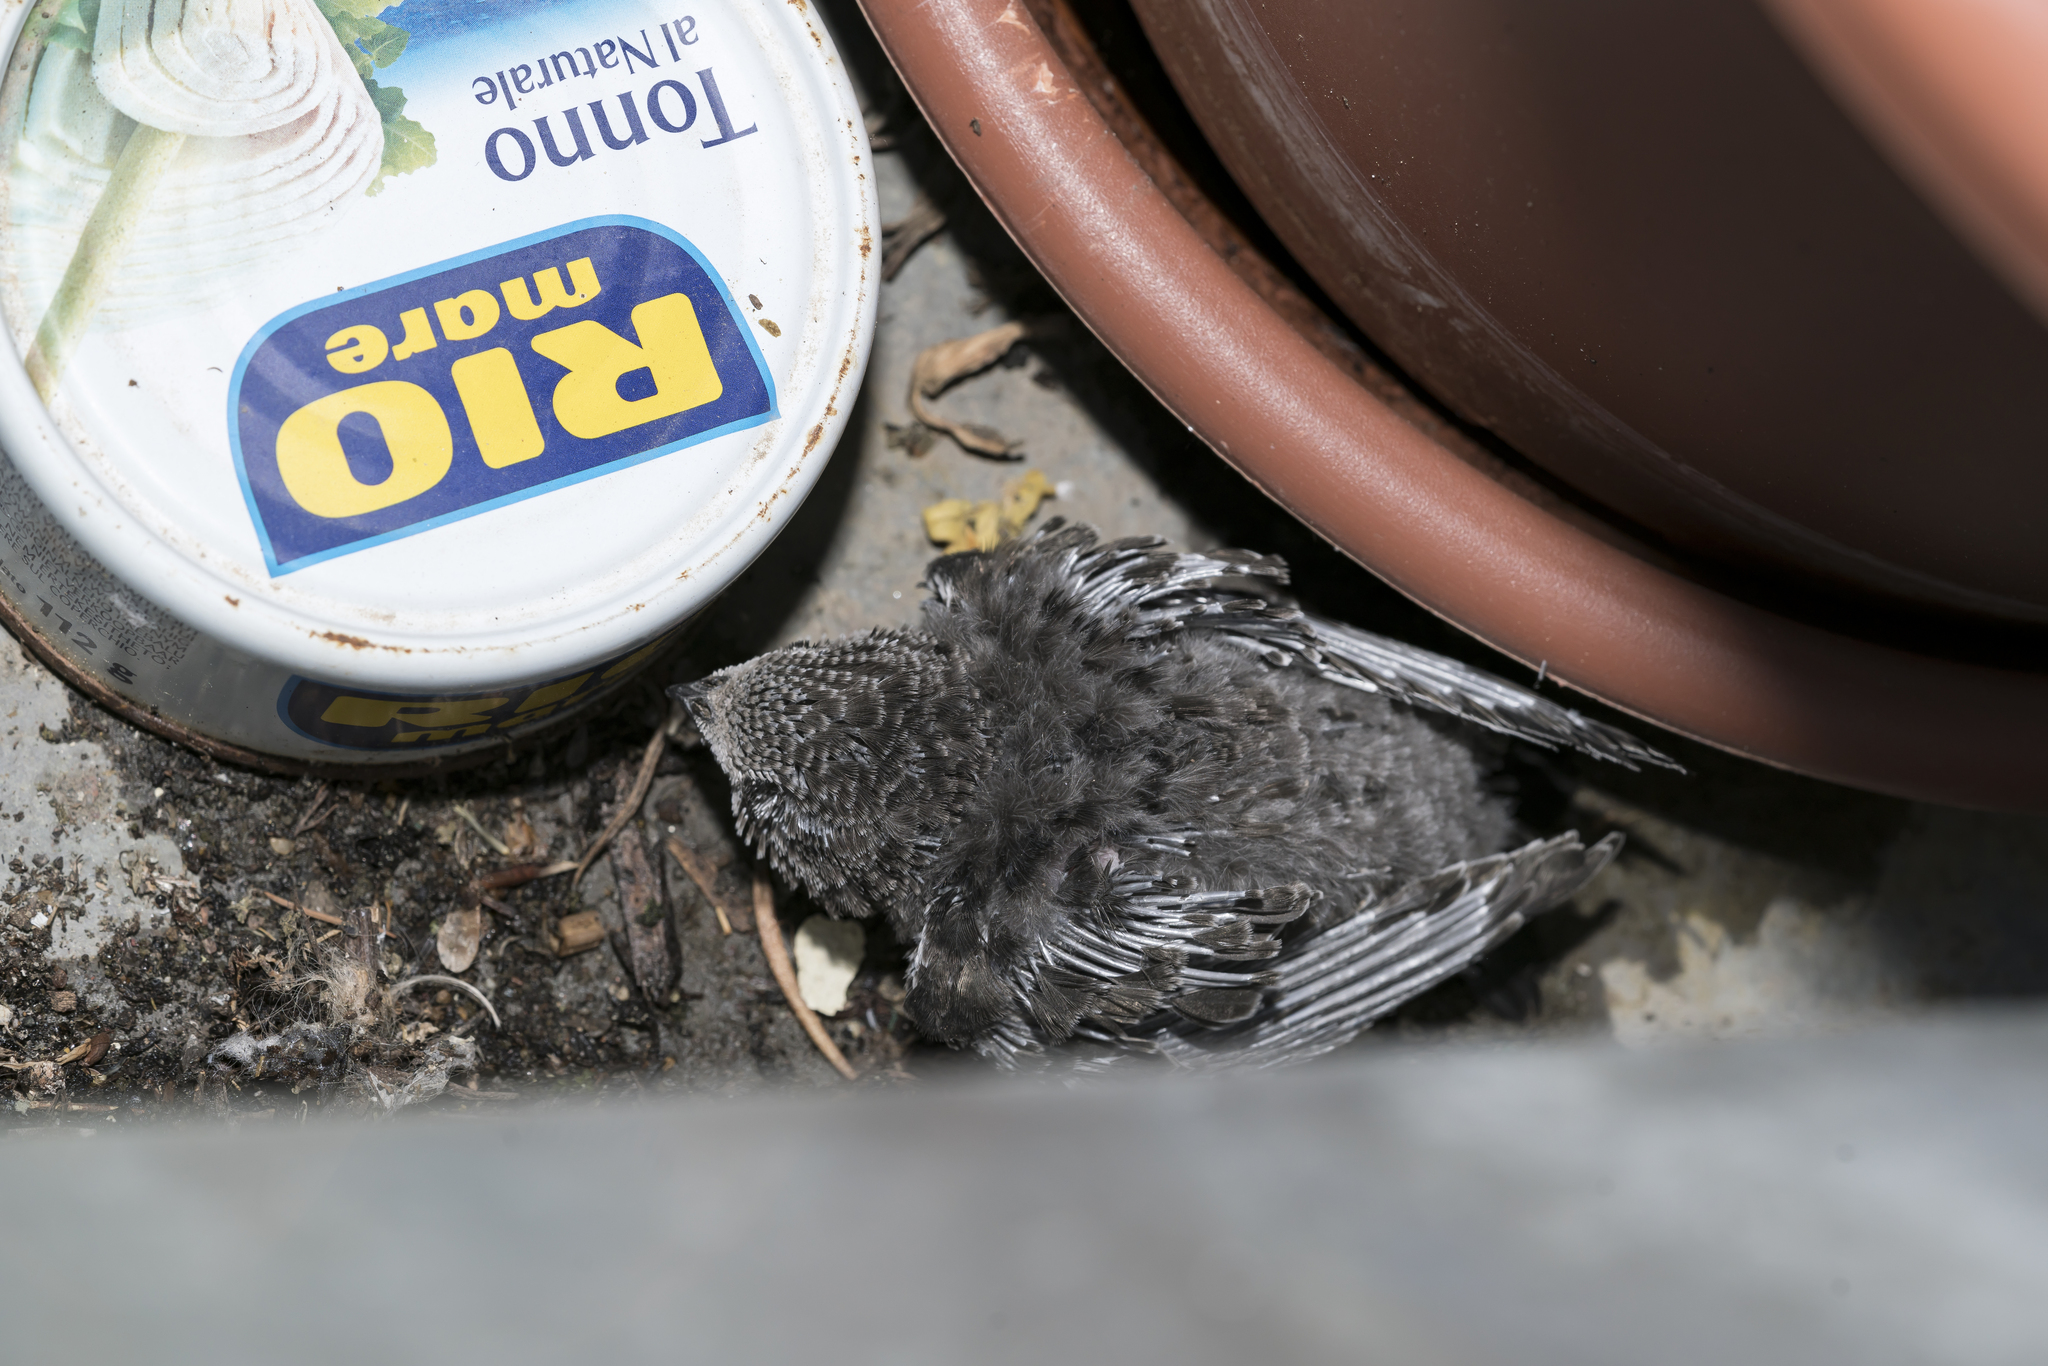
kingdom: Animalia
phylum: Chordata
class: Aves
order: Apodiformes
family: Apodidae
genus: Apus
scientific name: Apus apus
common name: Common swift
